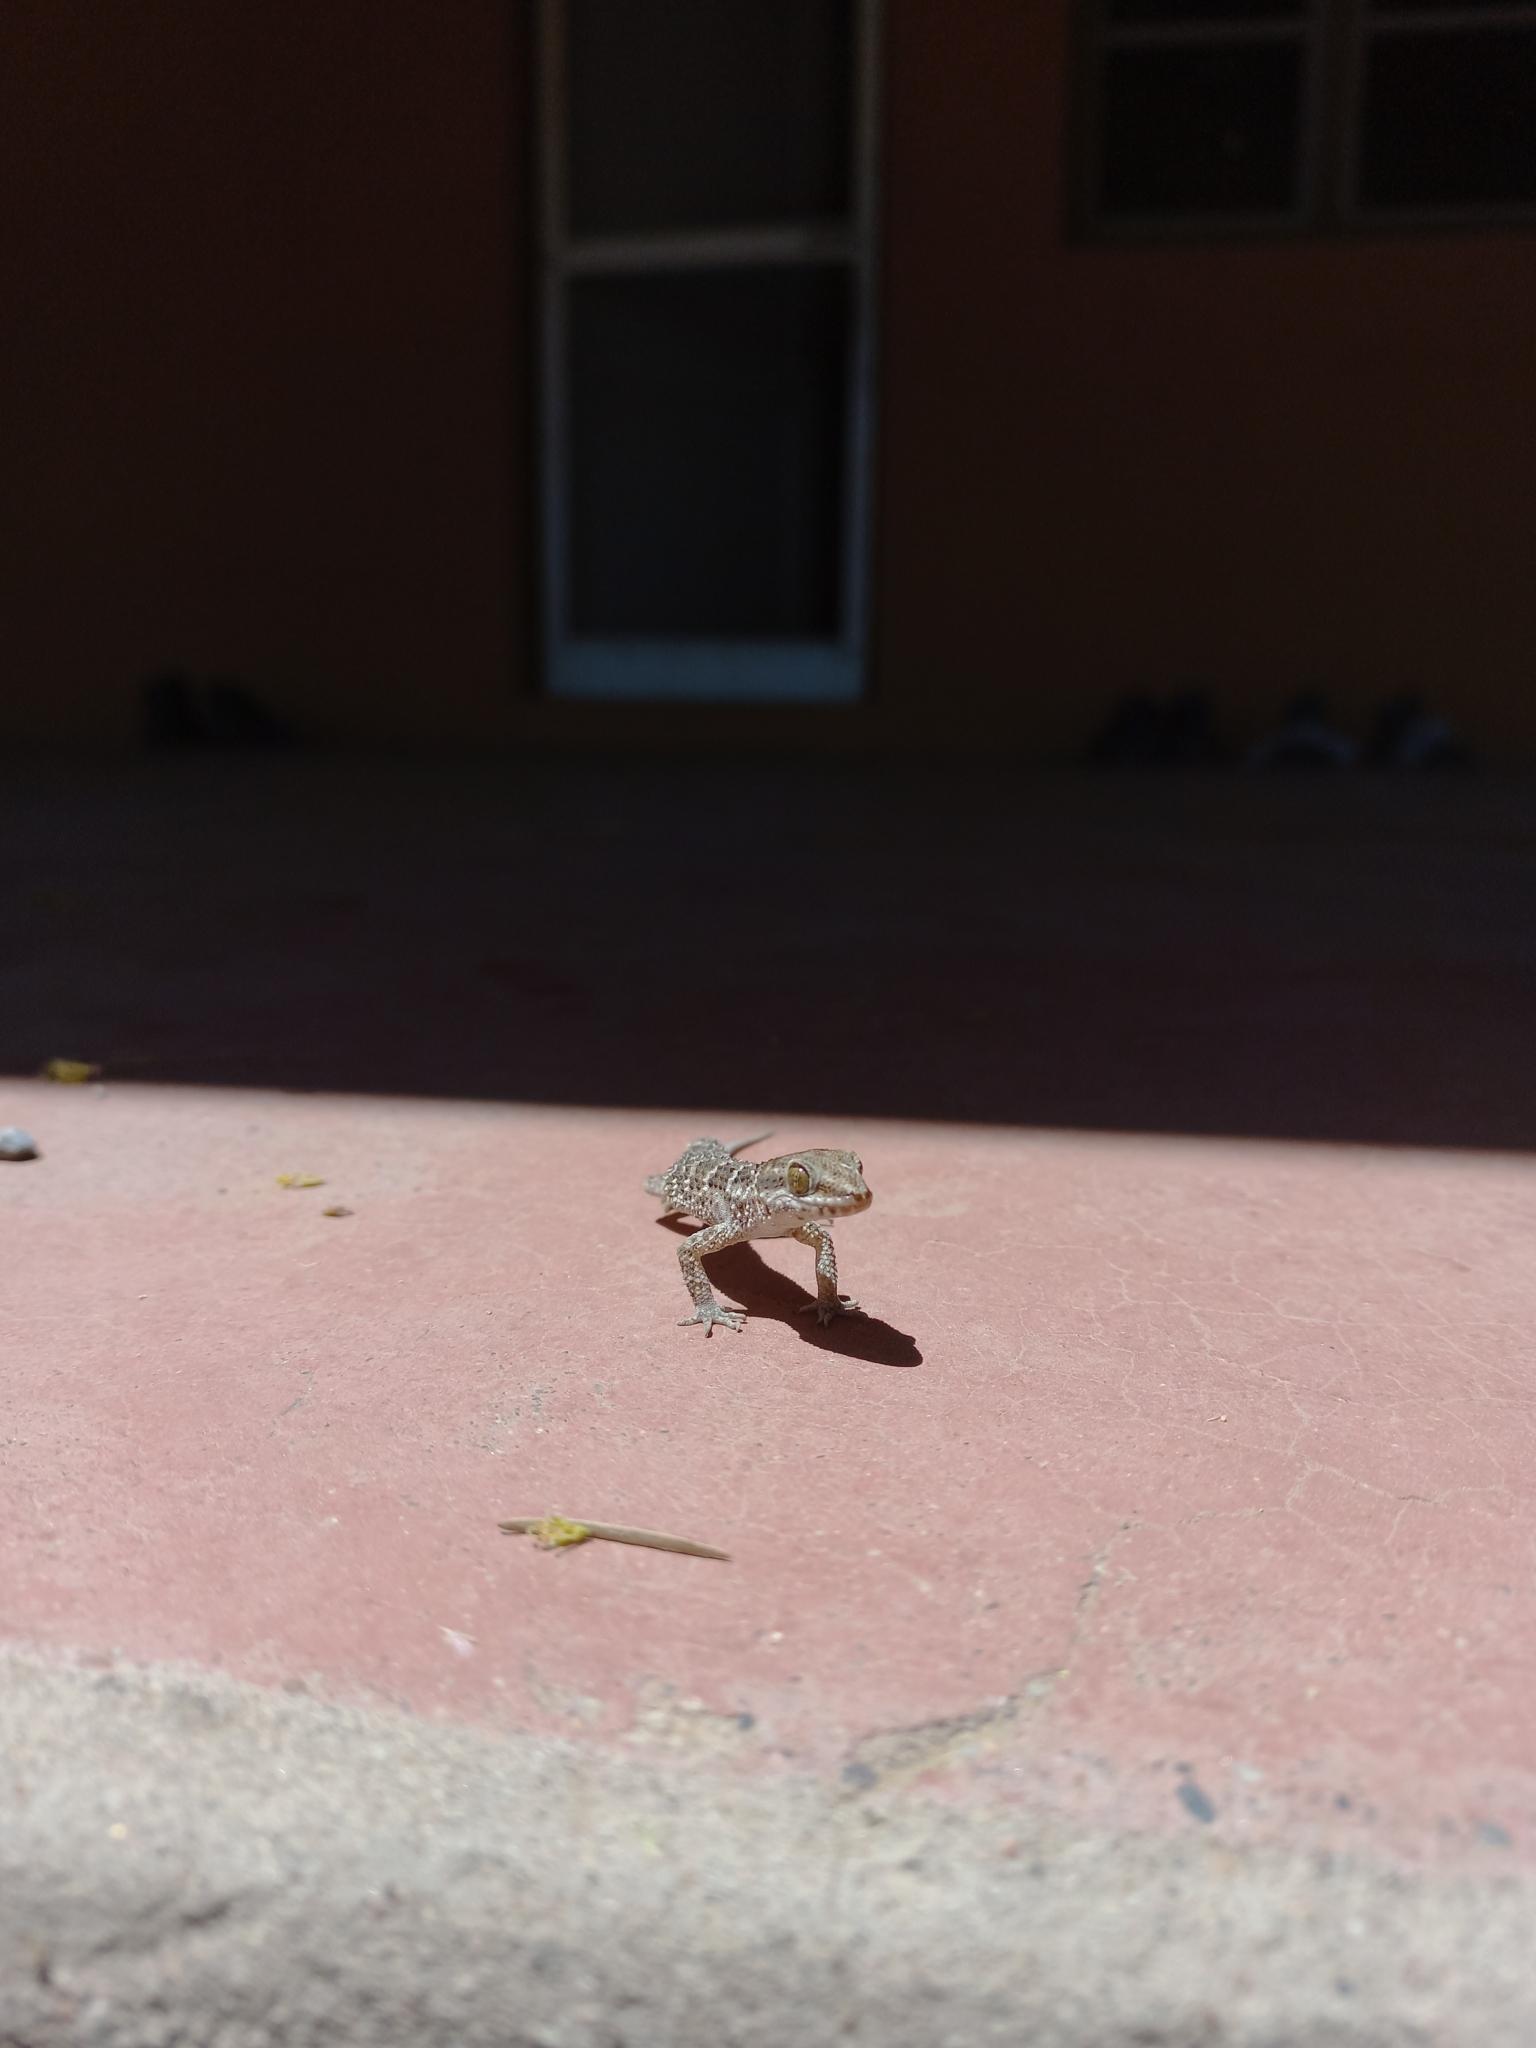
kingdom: Animalia
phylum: Chordata
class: Squamata
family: Phyllodactylidae
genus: Homonota
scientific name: Homonota horrida
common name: South american marked gecko
